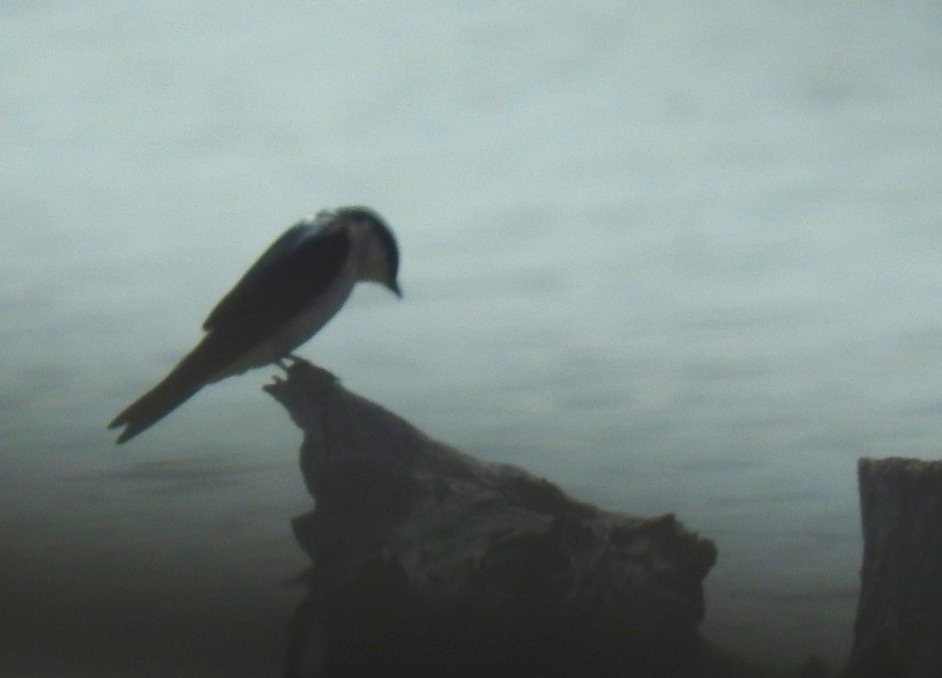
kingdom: Animalia
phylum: Chordata
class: Aves
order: Passeriformes
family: Hirundinidae
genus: Tachycineta
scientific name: Tachycineta albilinea
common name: Mangrove swallow
